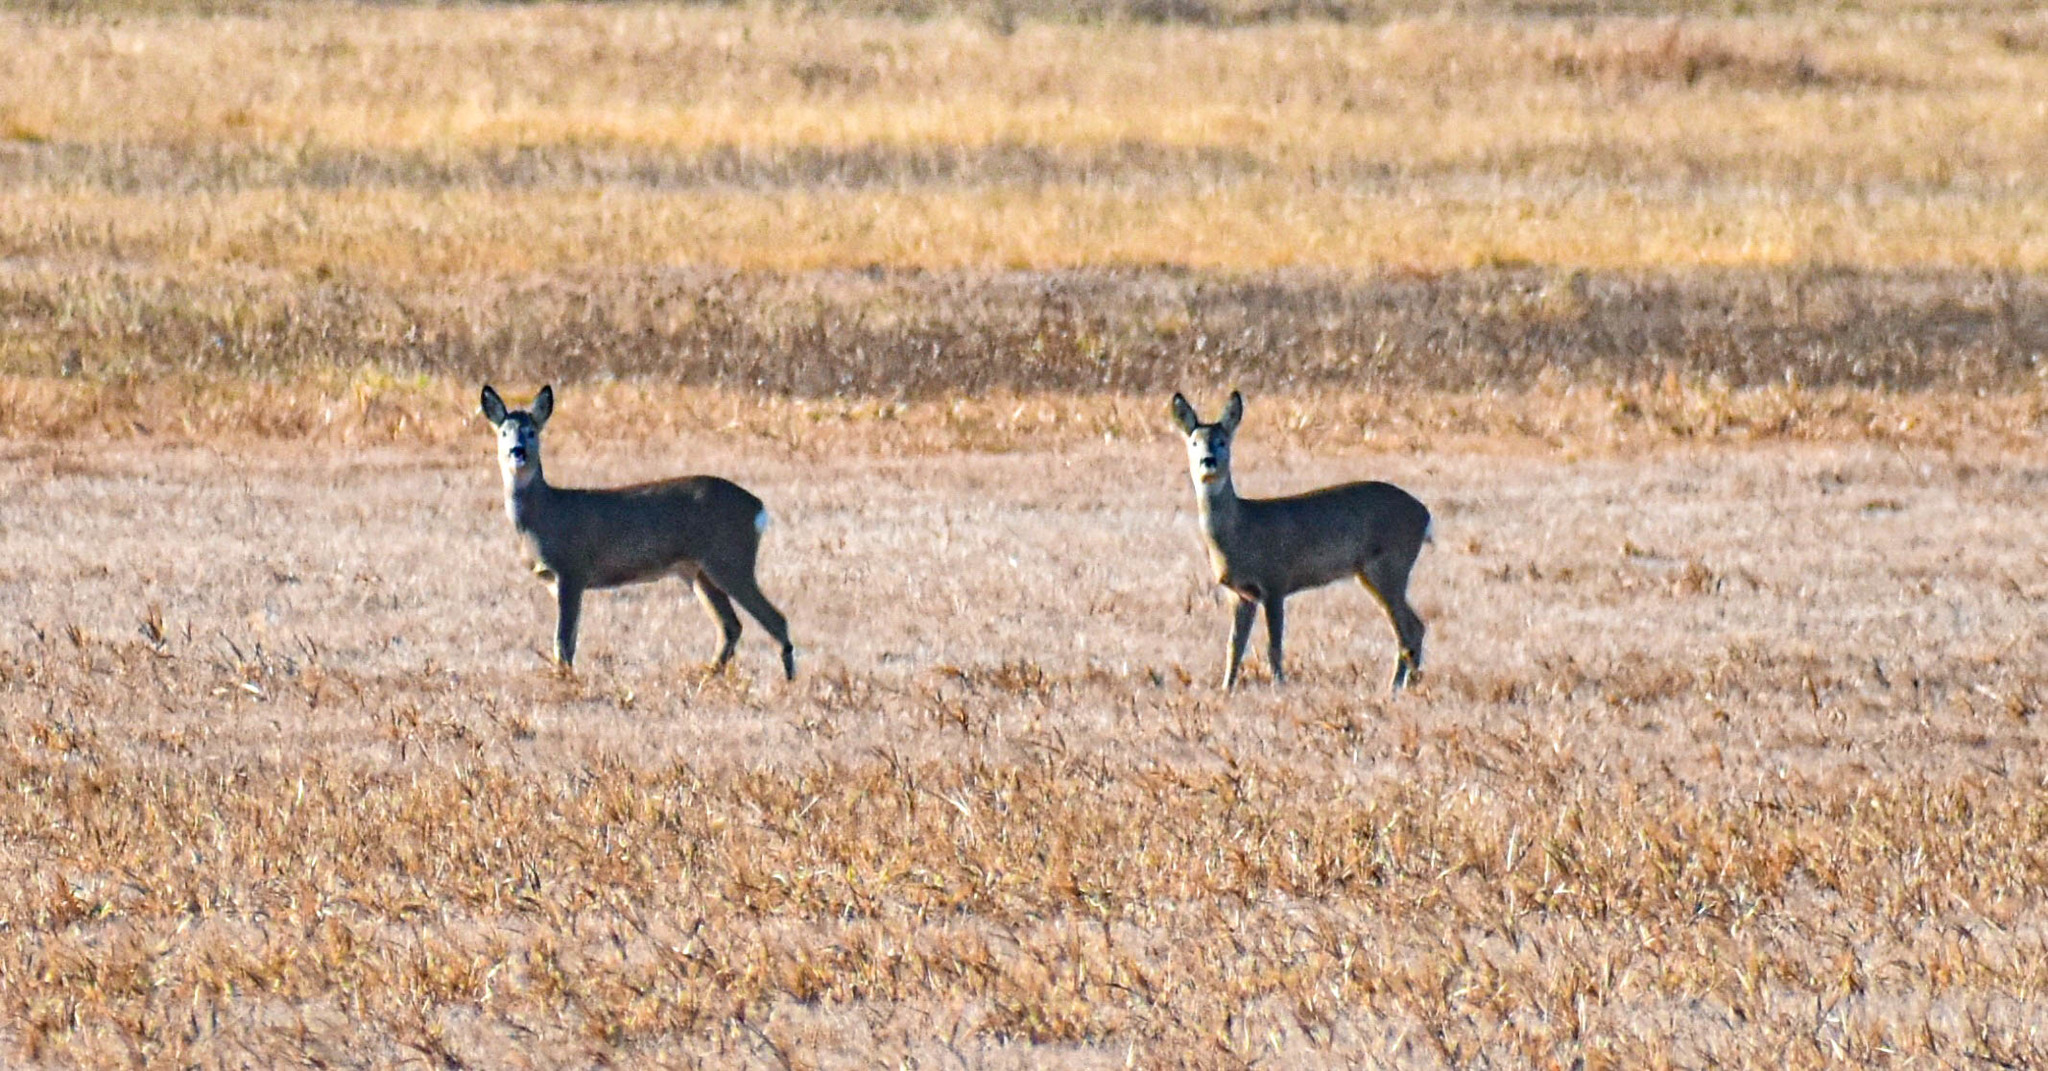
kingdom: Animalia
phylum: Chordata
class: Mammalia
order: Artiodactyla
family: Cervidae
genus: Capreolus
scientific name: Capreolus capreolus
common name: Western roe deer
